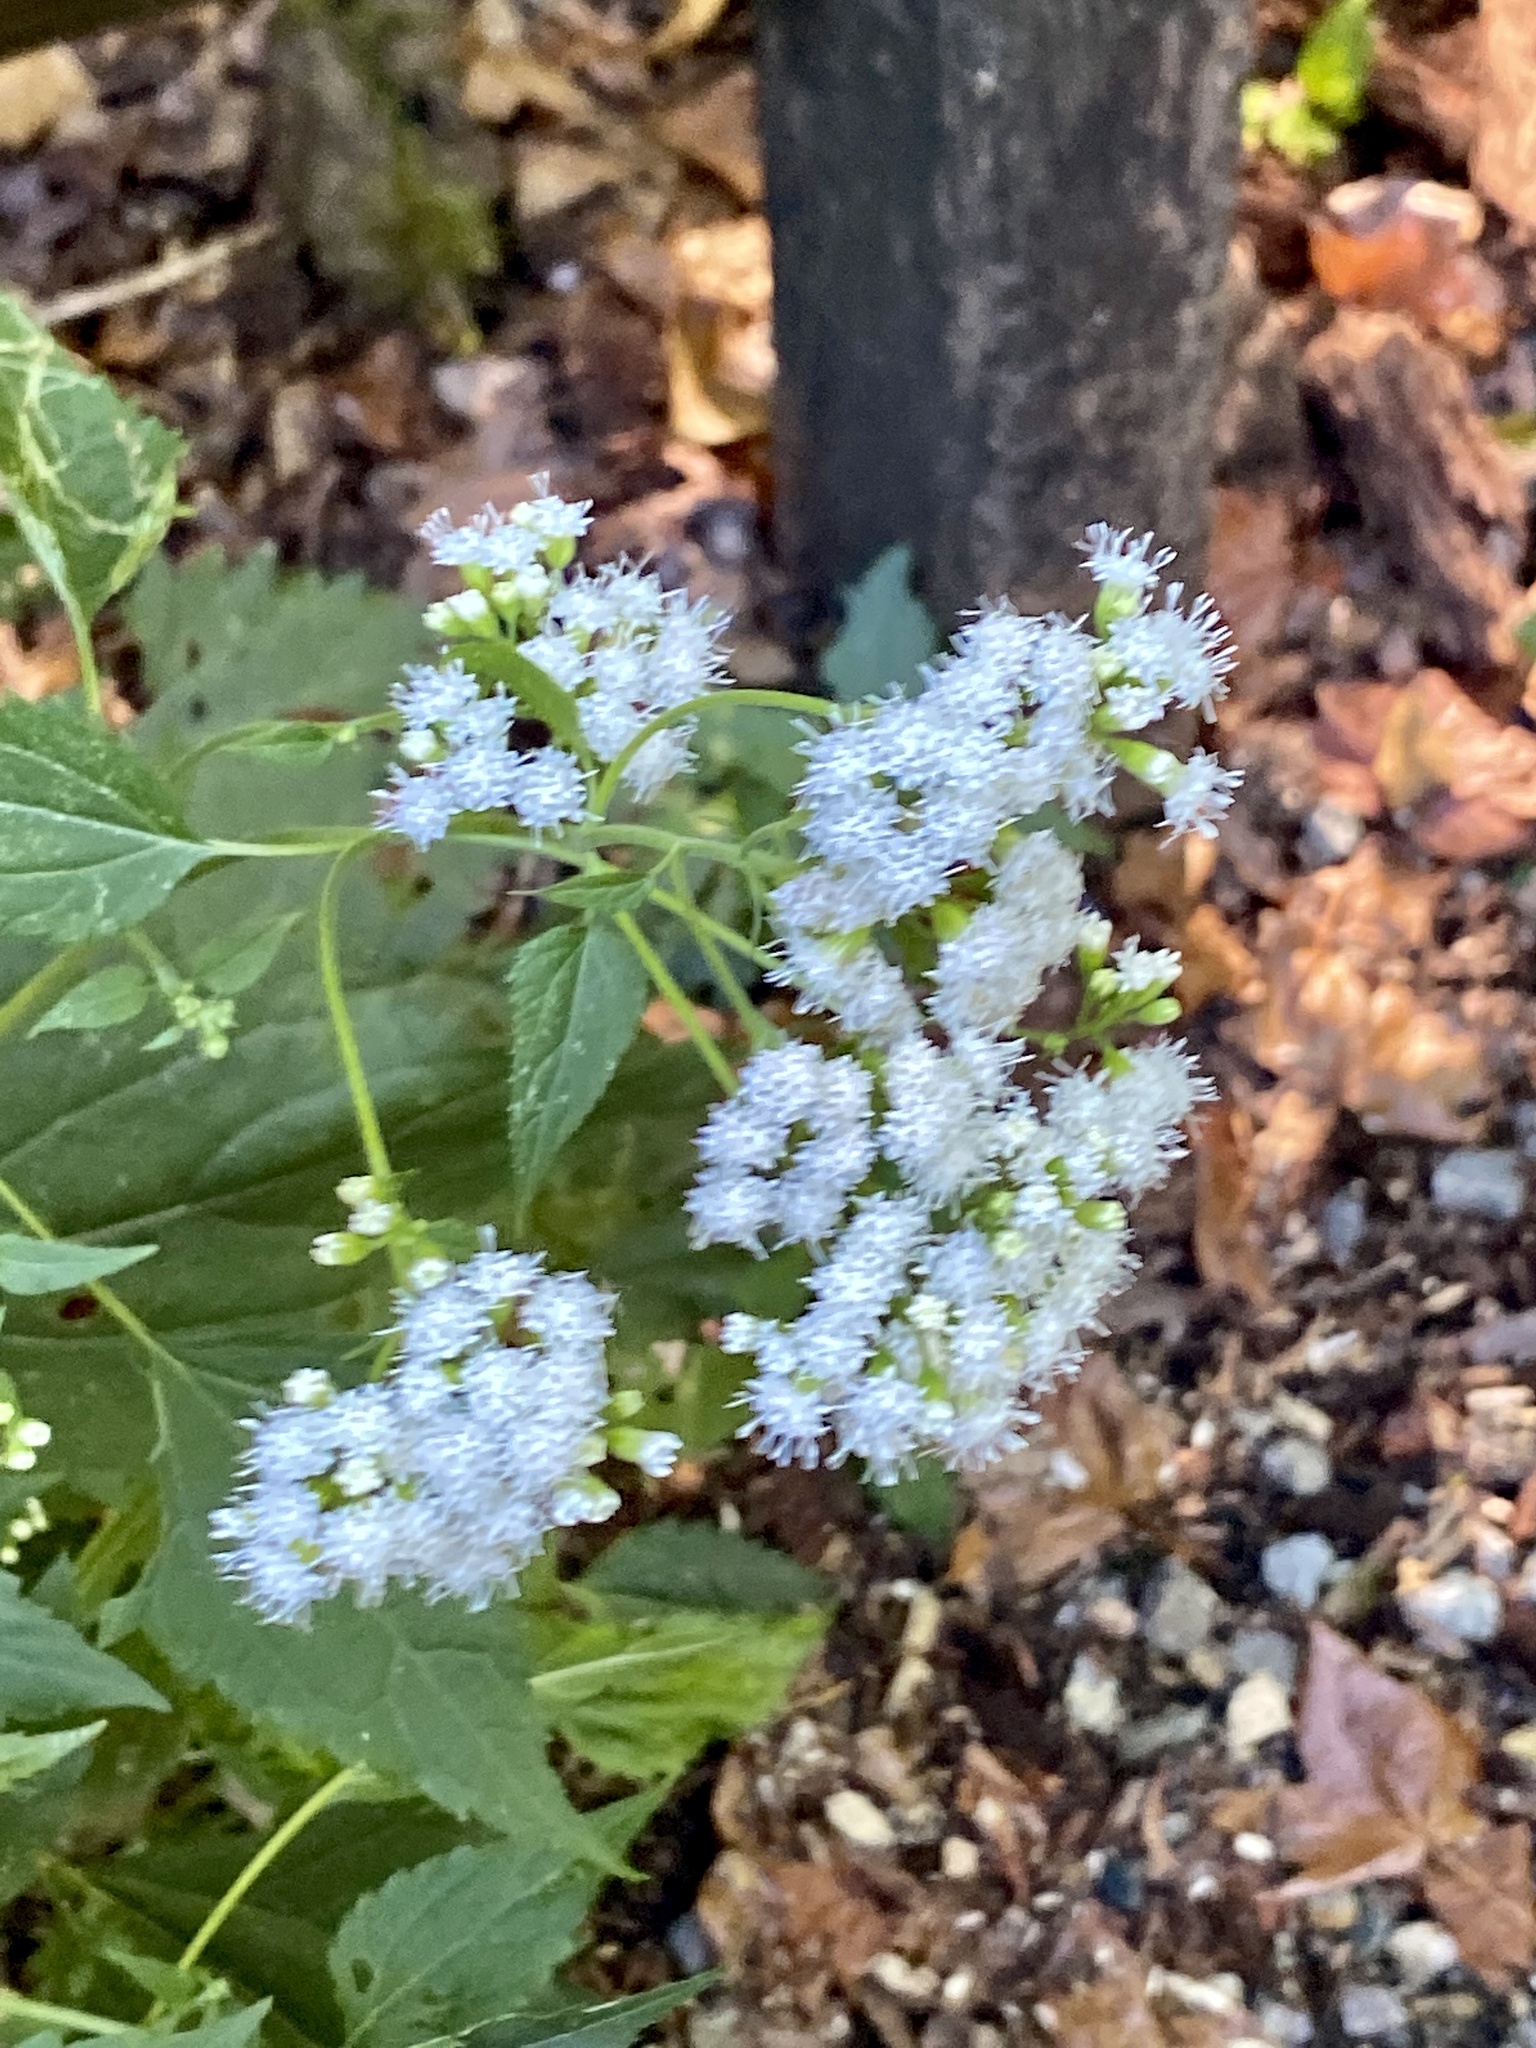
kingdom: Plantae
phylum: Tracheophyta
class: Magnoliopsida
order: Asterales
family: Asteraceae
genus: Ageratina
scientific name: Ageratina altissima
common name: White snakeroot
